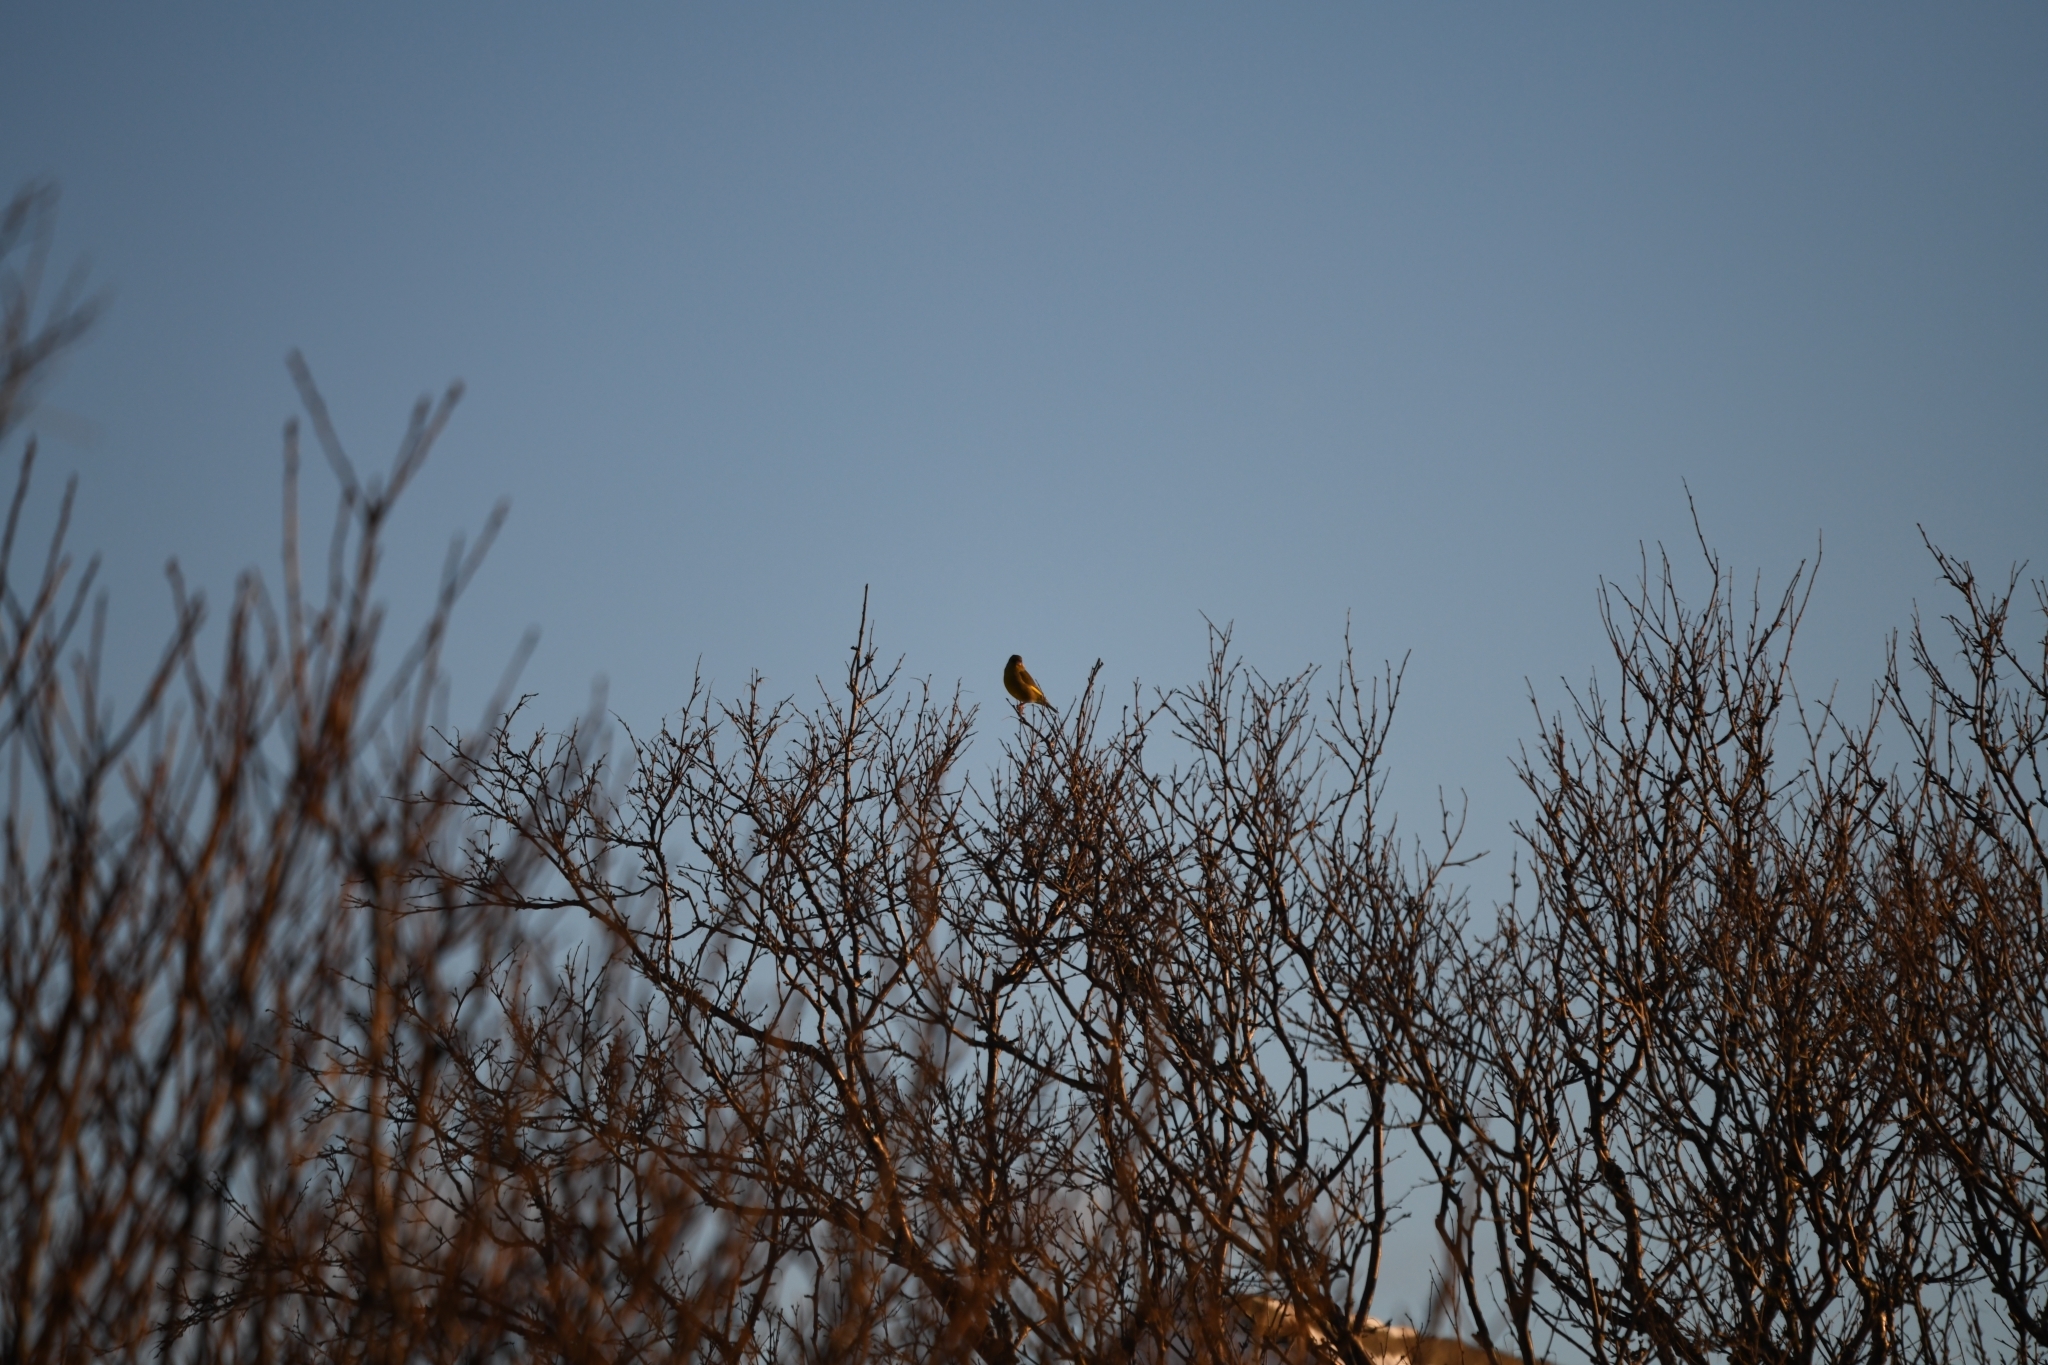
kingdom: Plantae
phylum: Tracheophyta
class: Liliopsida
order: Poales
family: Poaceae
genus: Chloris
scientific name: Chloris chloris
